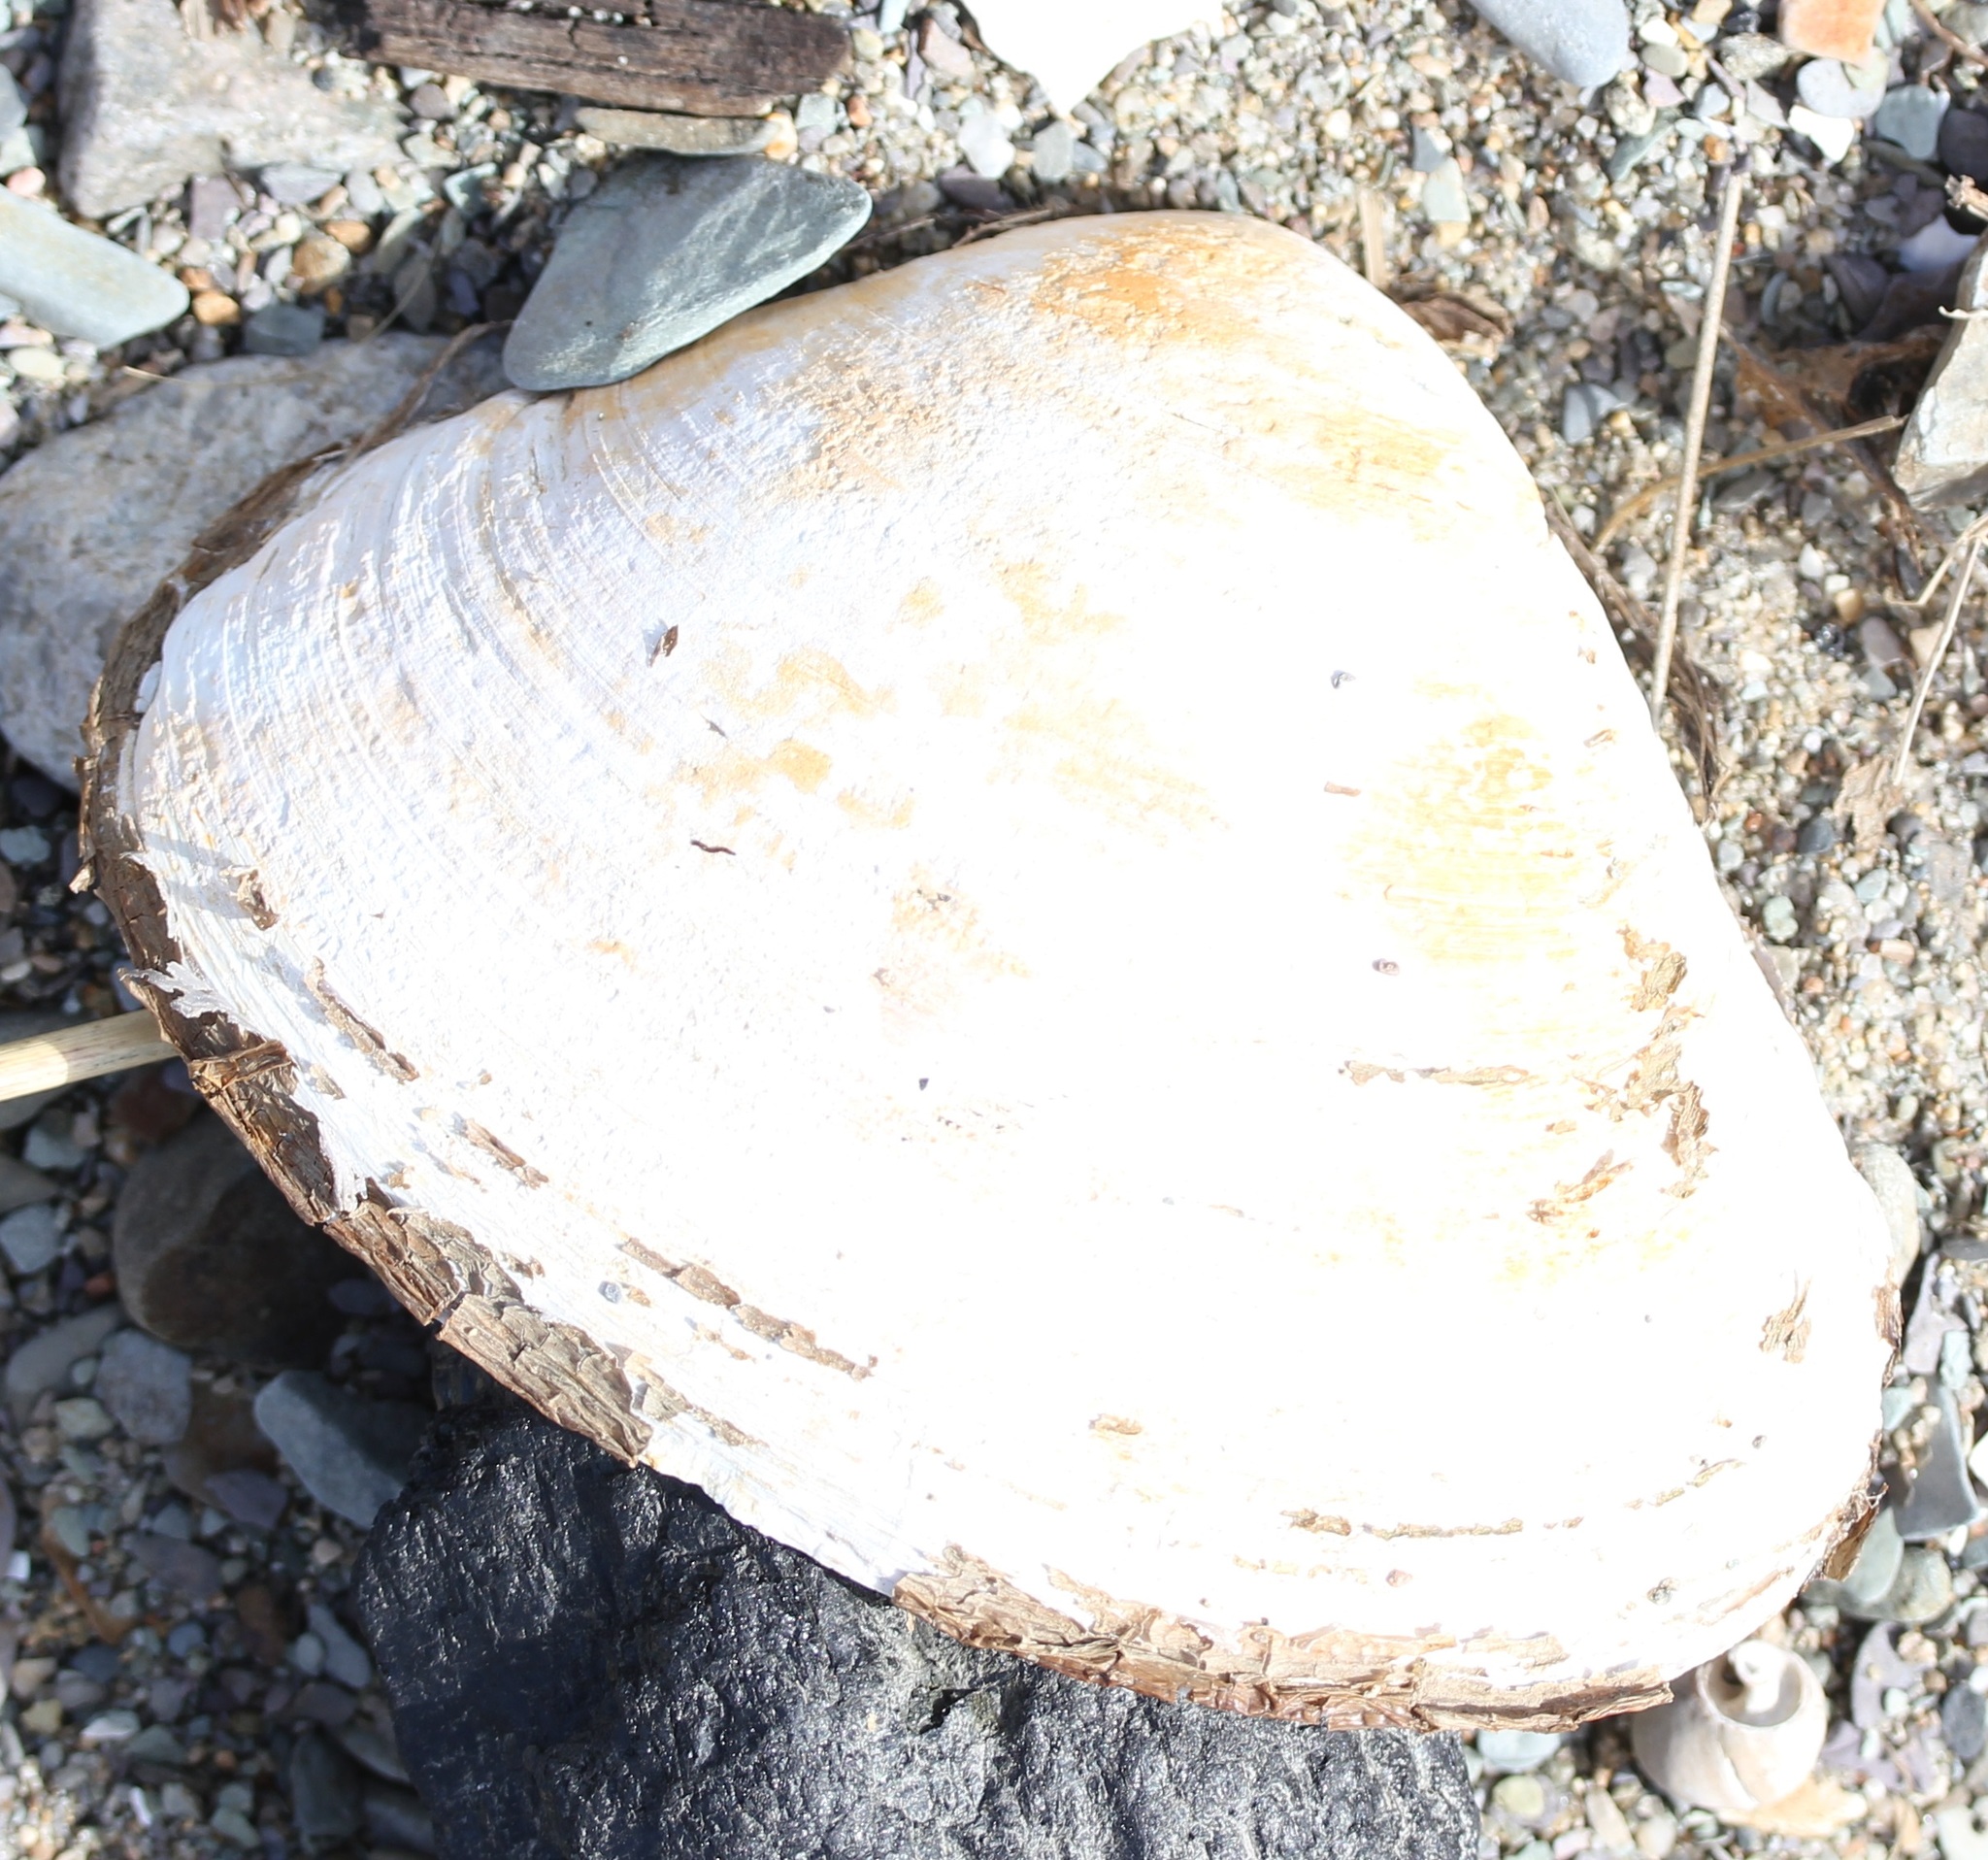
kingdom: Animalia
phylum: Mollusca
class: Bivalvia
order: Venerida
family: Mactridae
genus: Spisula
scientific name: Spisula solidissima
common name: Atlantic surf clam
